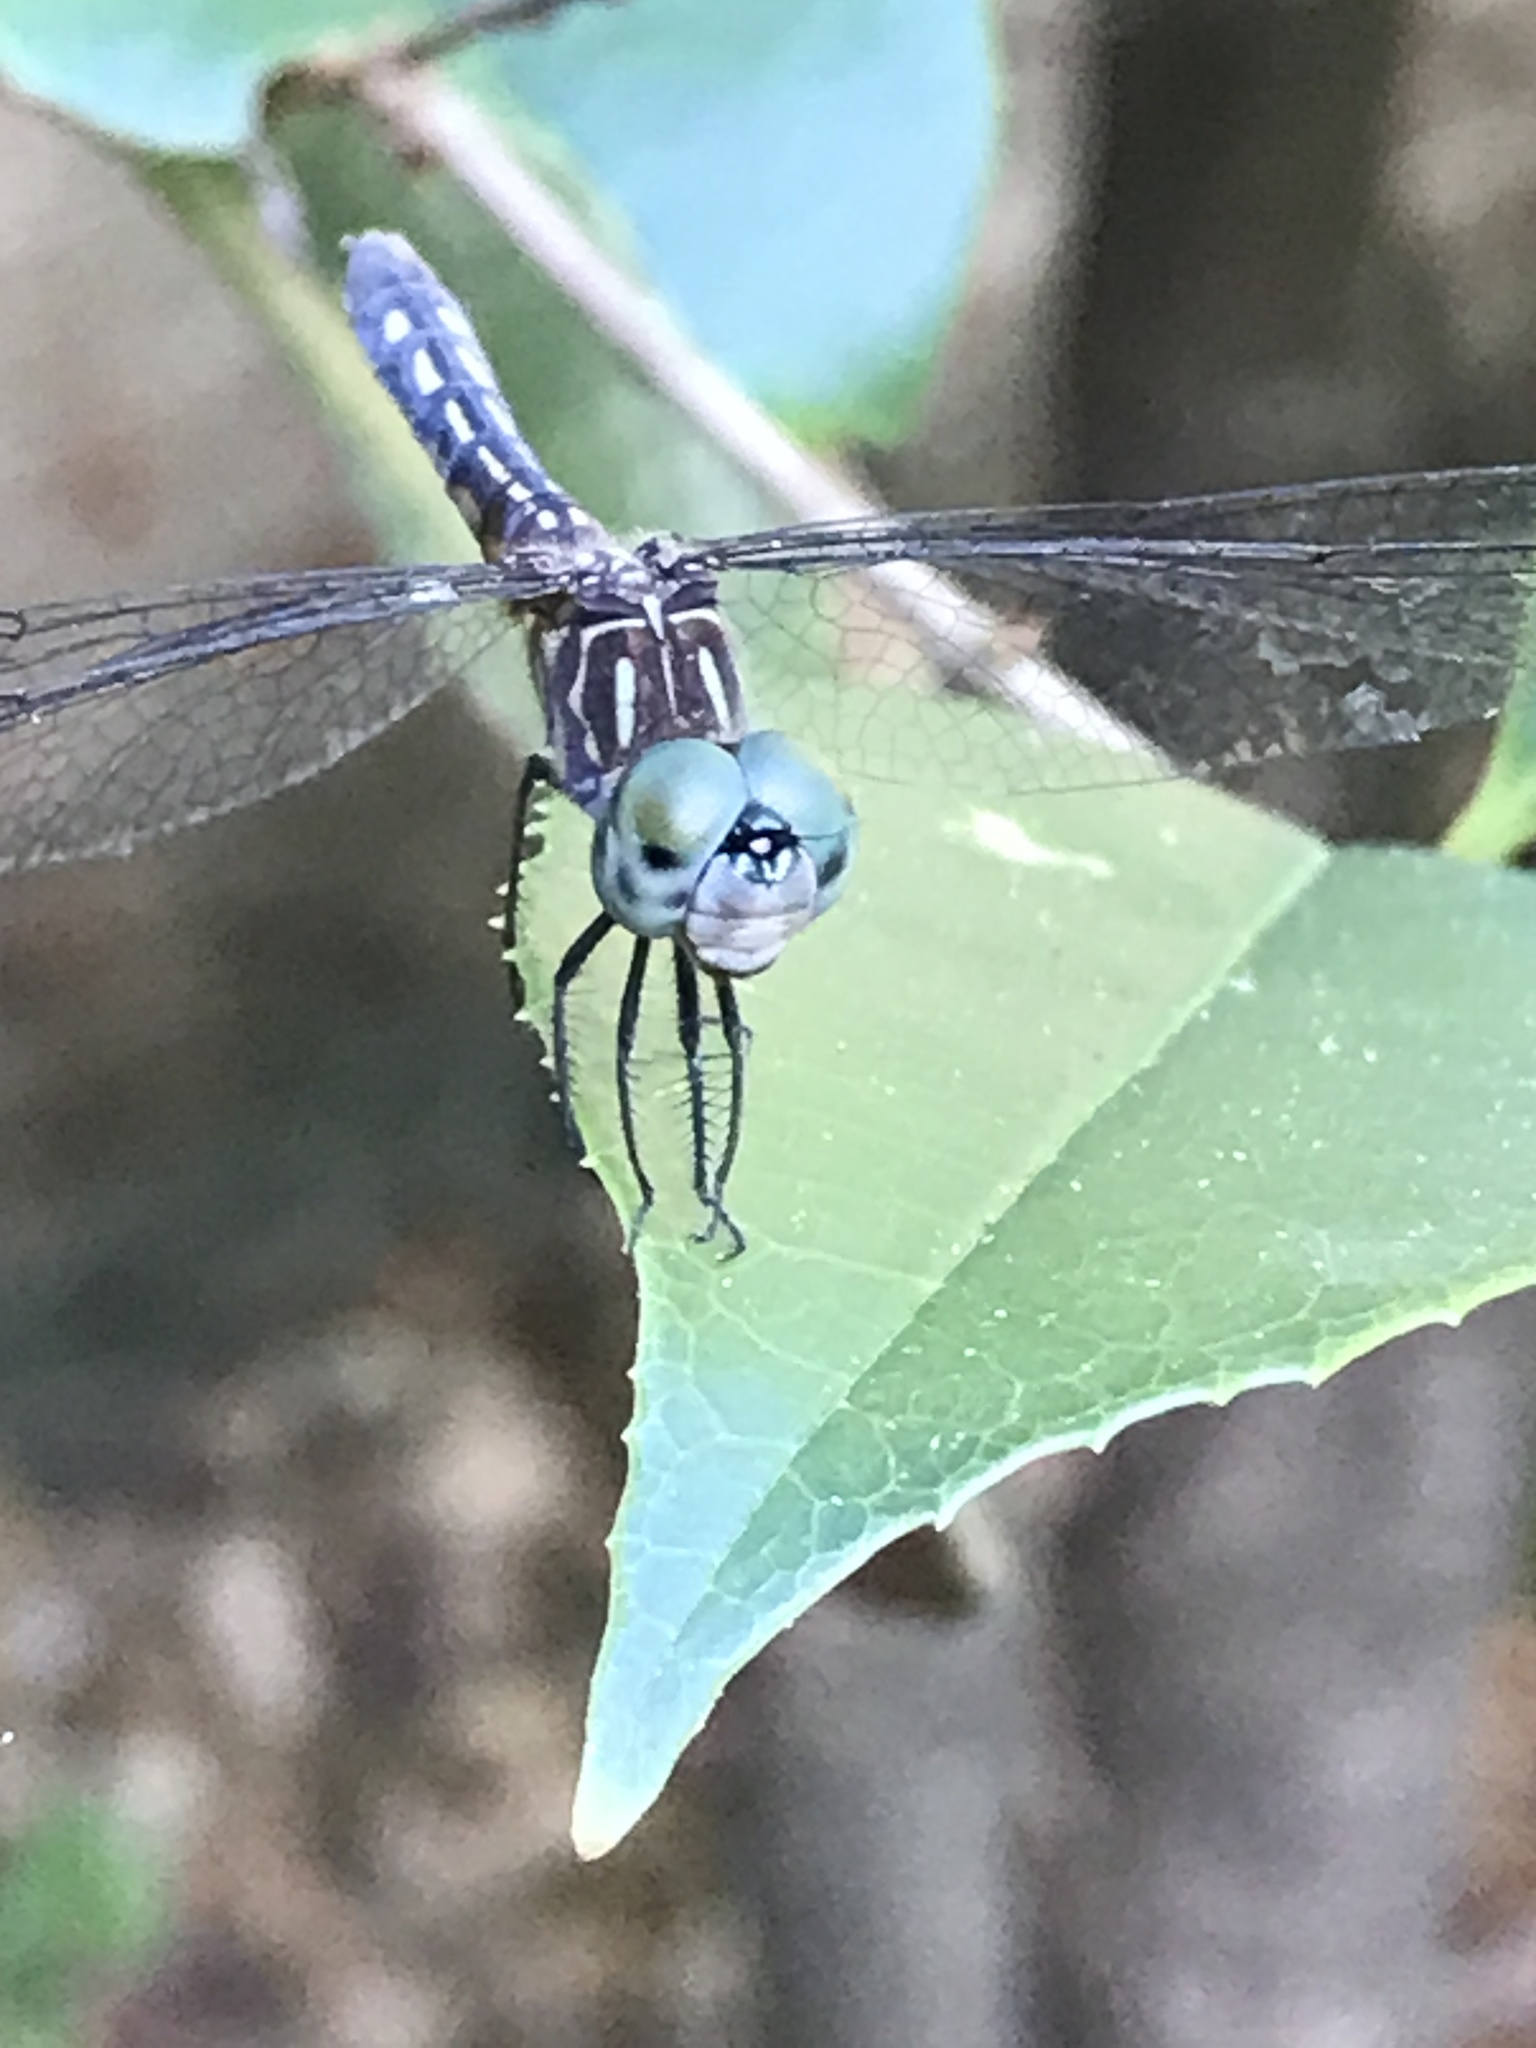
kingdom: Animalia
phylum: Arthropoda
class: Insecta
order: Odonata
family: Libellulidae
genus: Pachydiplax
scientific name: Pachydiplax longipennis
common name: Blue dasher
